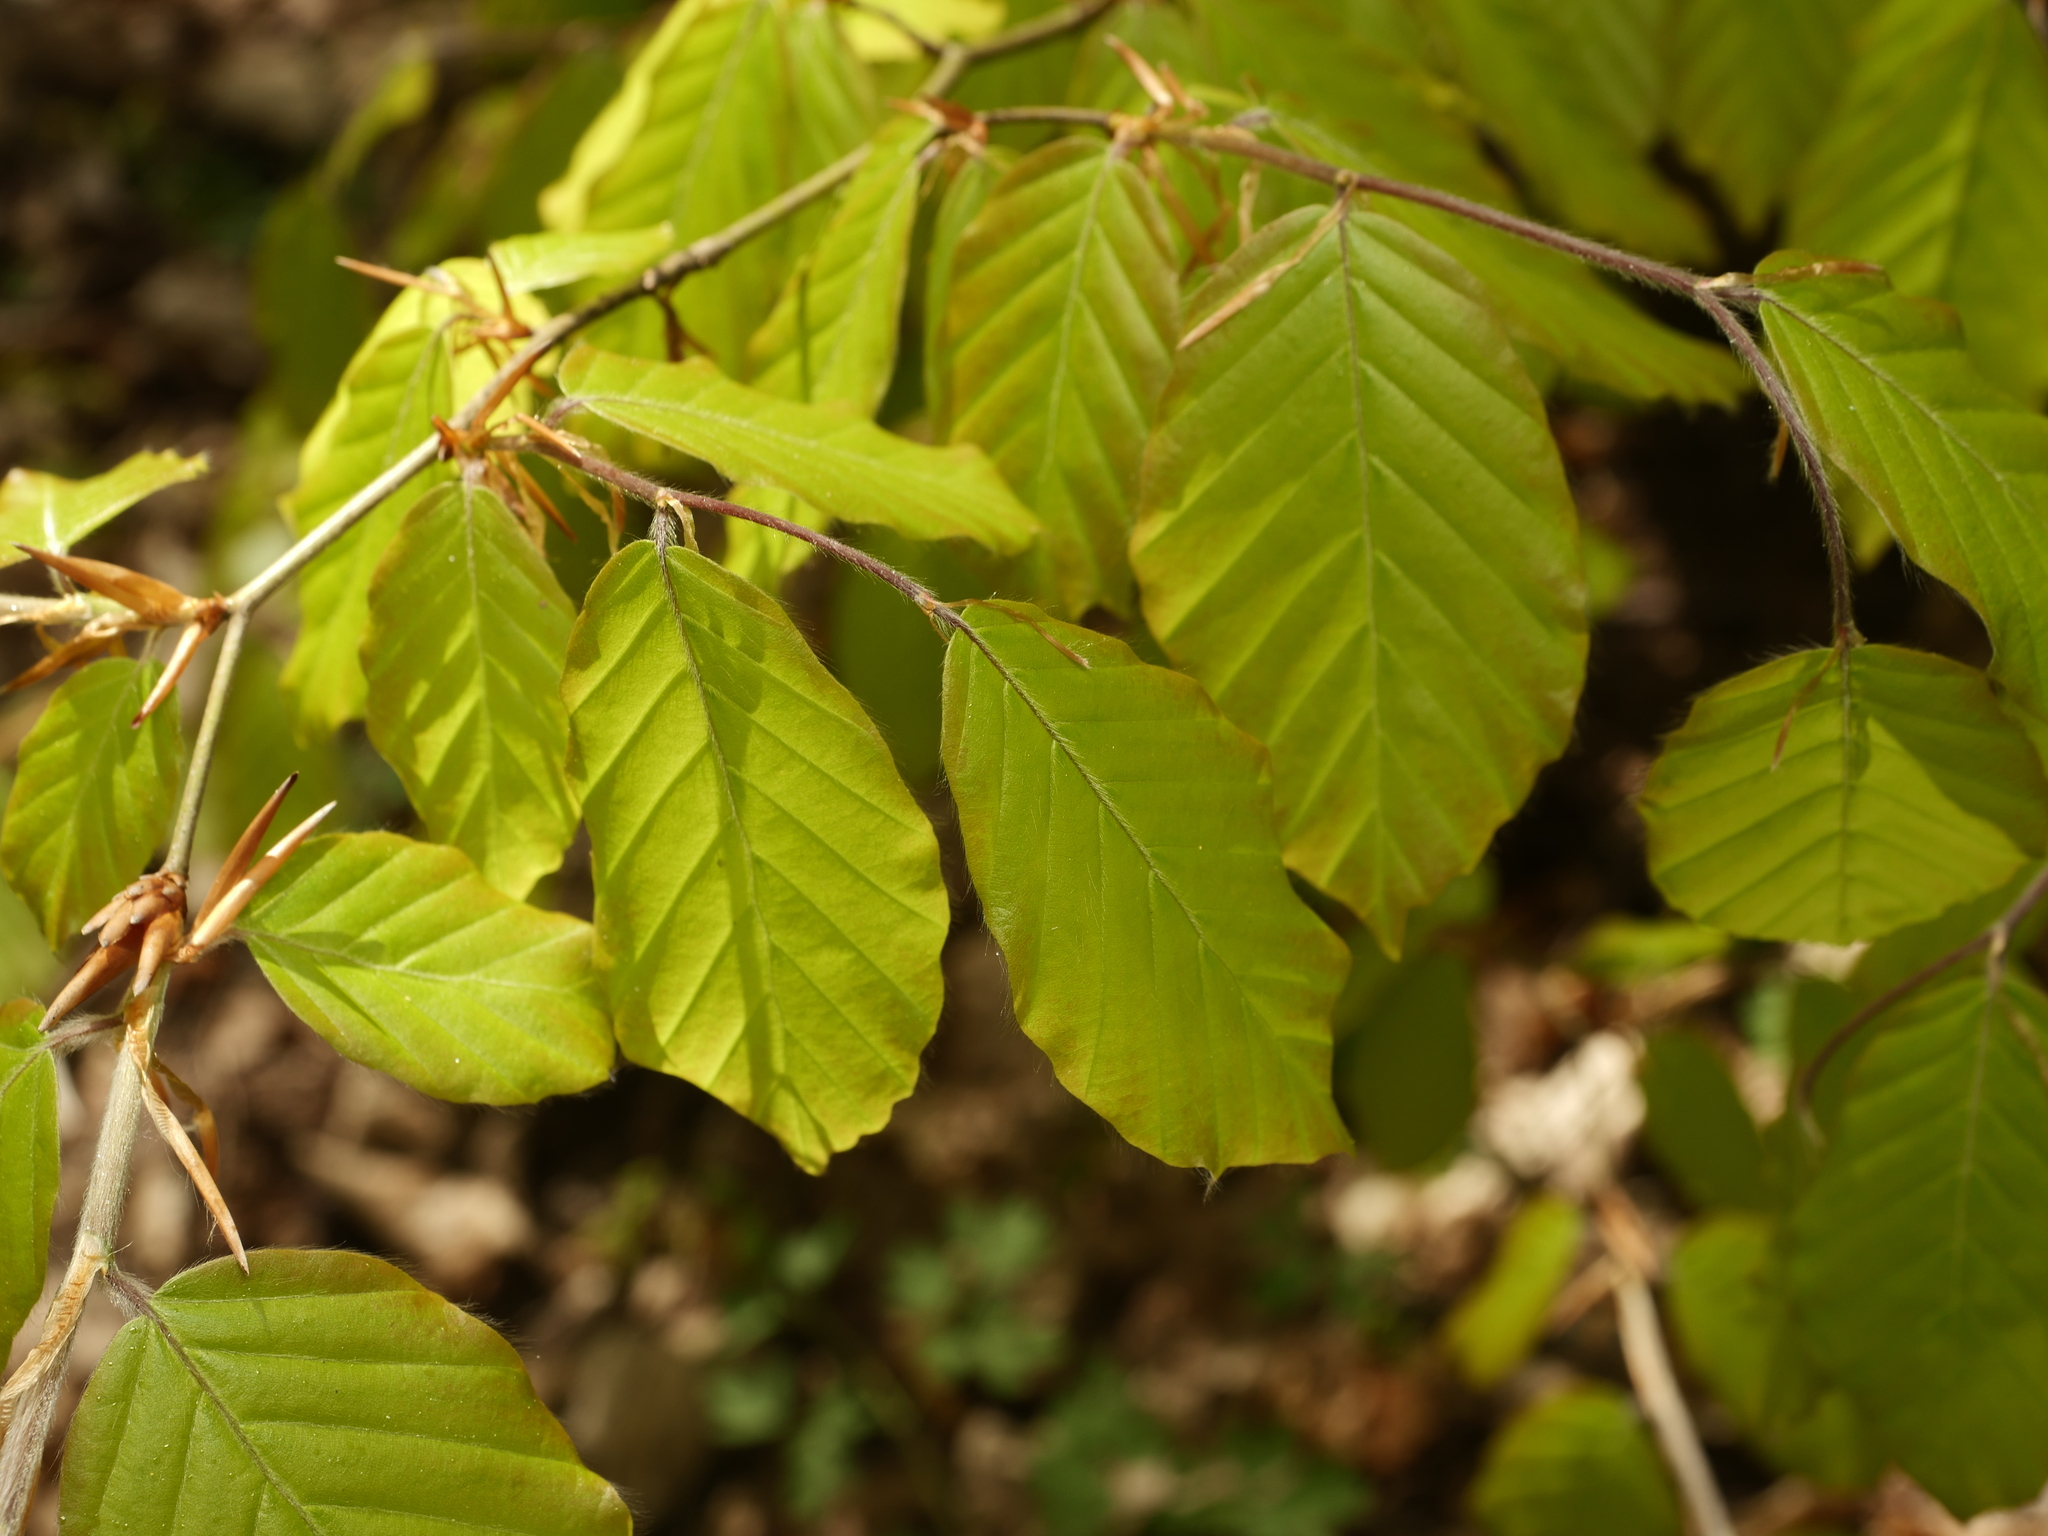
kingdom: Plantae
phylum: Tracheophyta
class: Magnoliopsida
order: Fagales
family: Fagaceae
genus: Fagus
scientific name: Fagus sylvatica
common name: Beech
